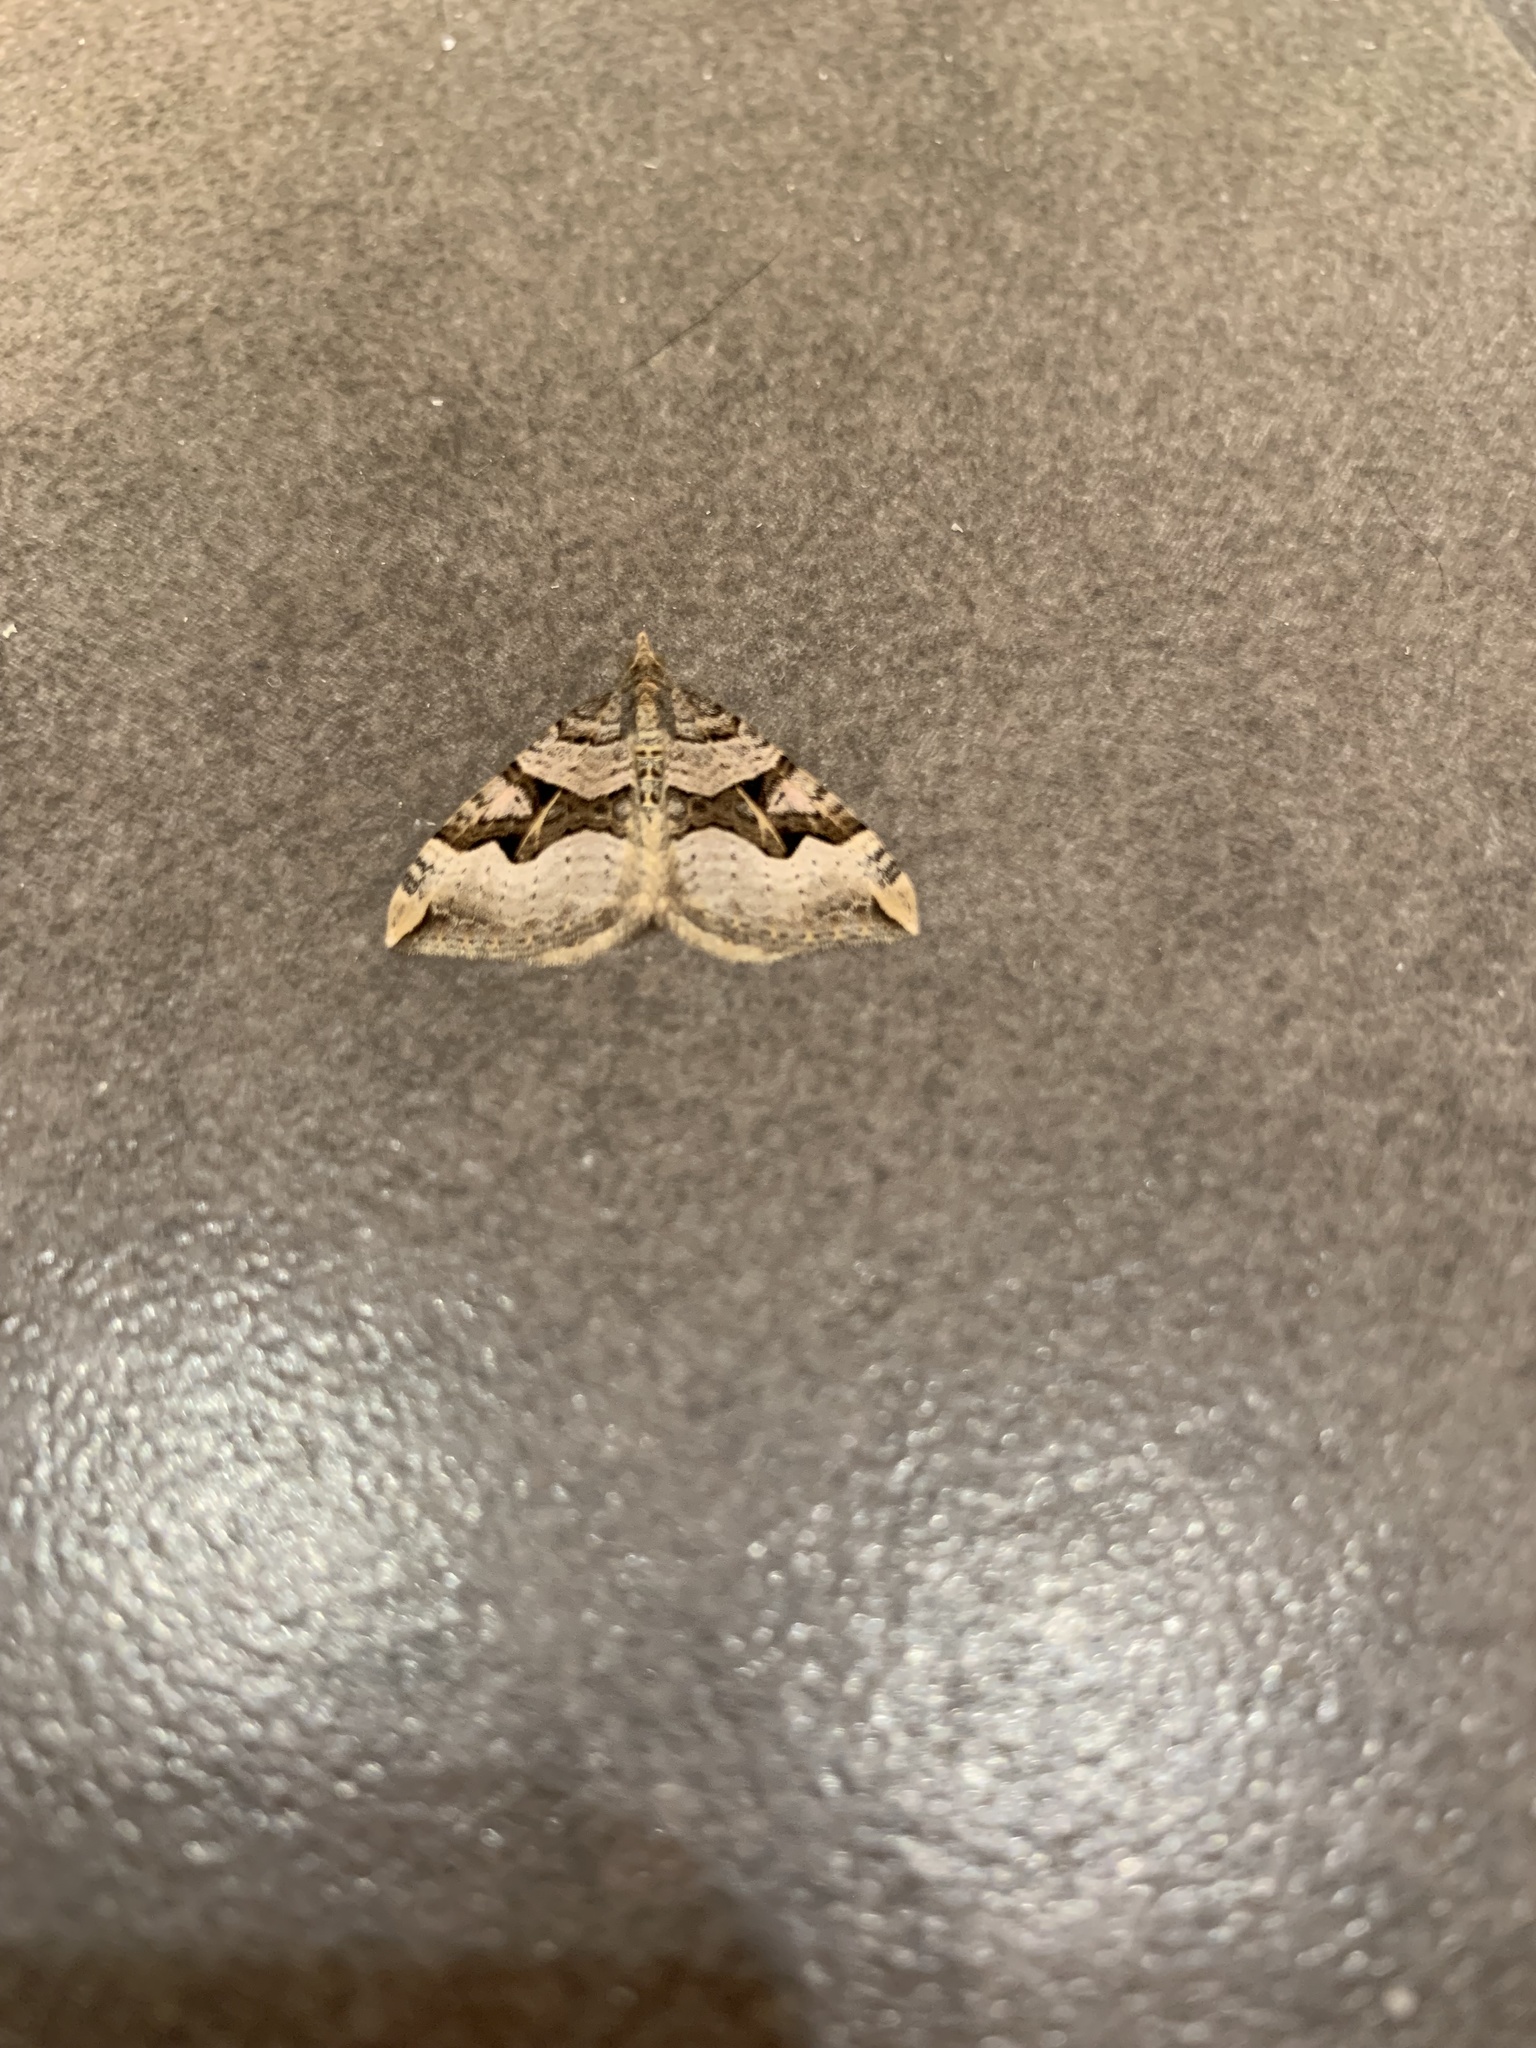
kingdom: Animalia
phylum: Arthropoda
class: Insecta
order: Lepidoptera
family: Geometridae
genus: Xanthorhoe
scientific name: Xanthorhoe semifissata
